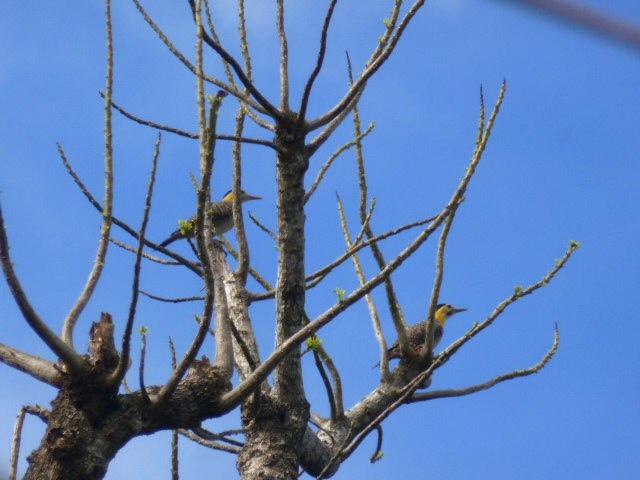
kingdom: Animalia
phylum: Chordata
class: Aves
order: Piciformes
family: Picidae
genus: Colaptes
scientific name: Colaptes campestris
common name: Campo flicker
